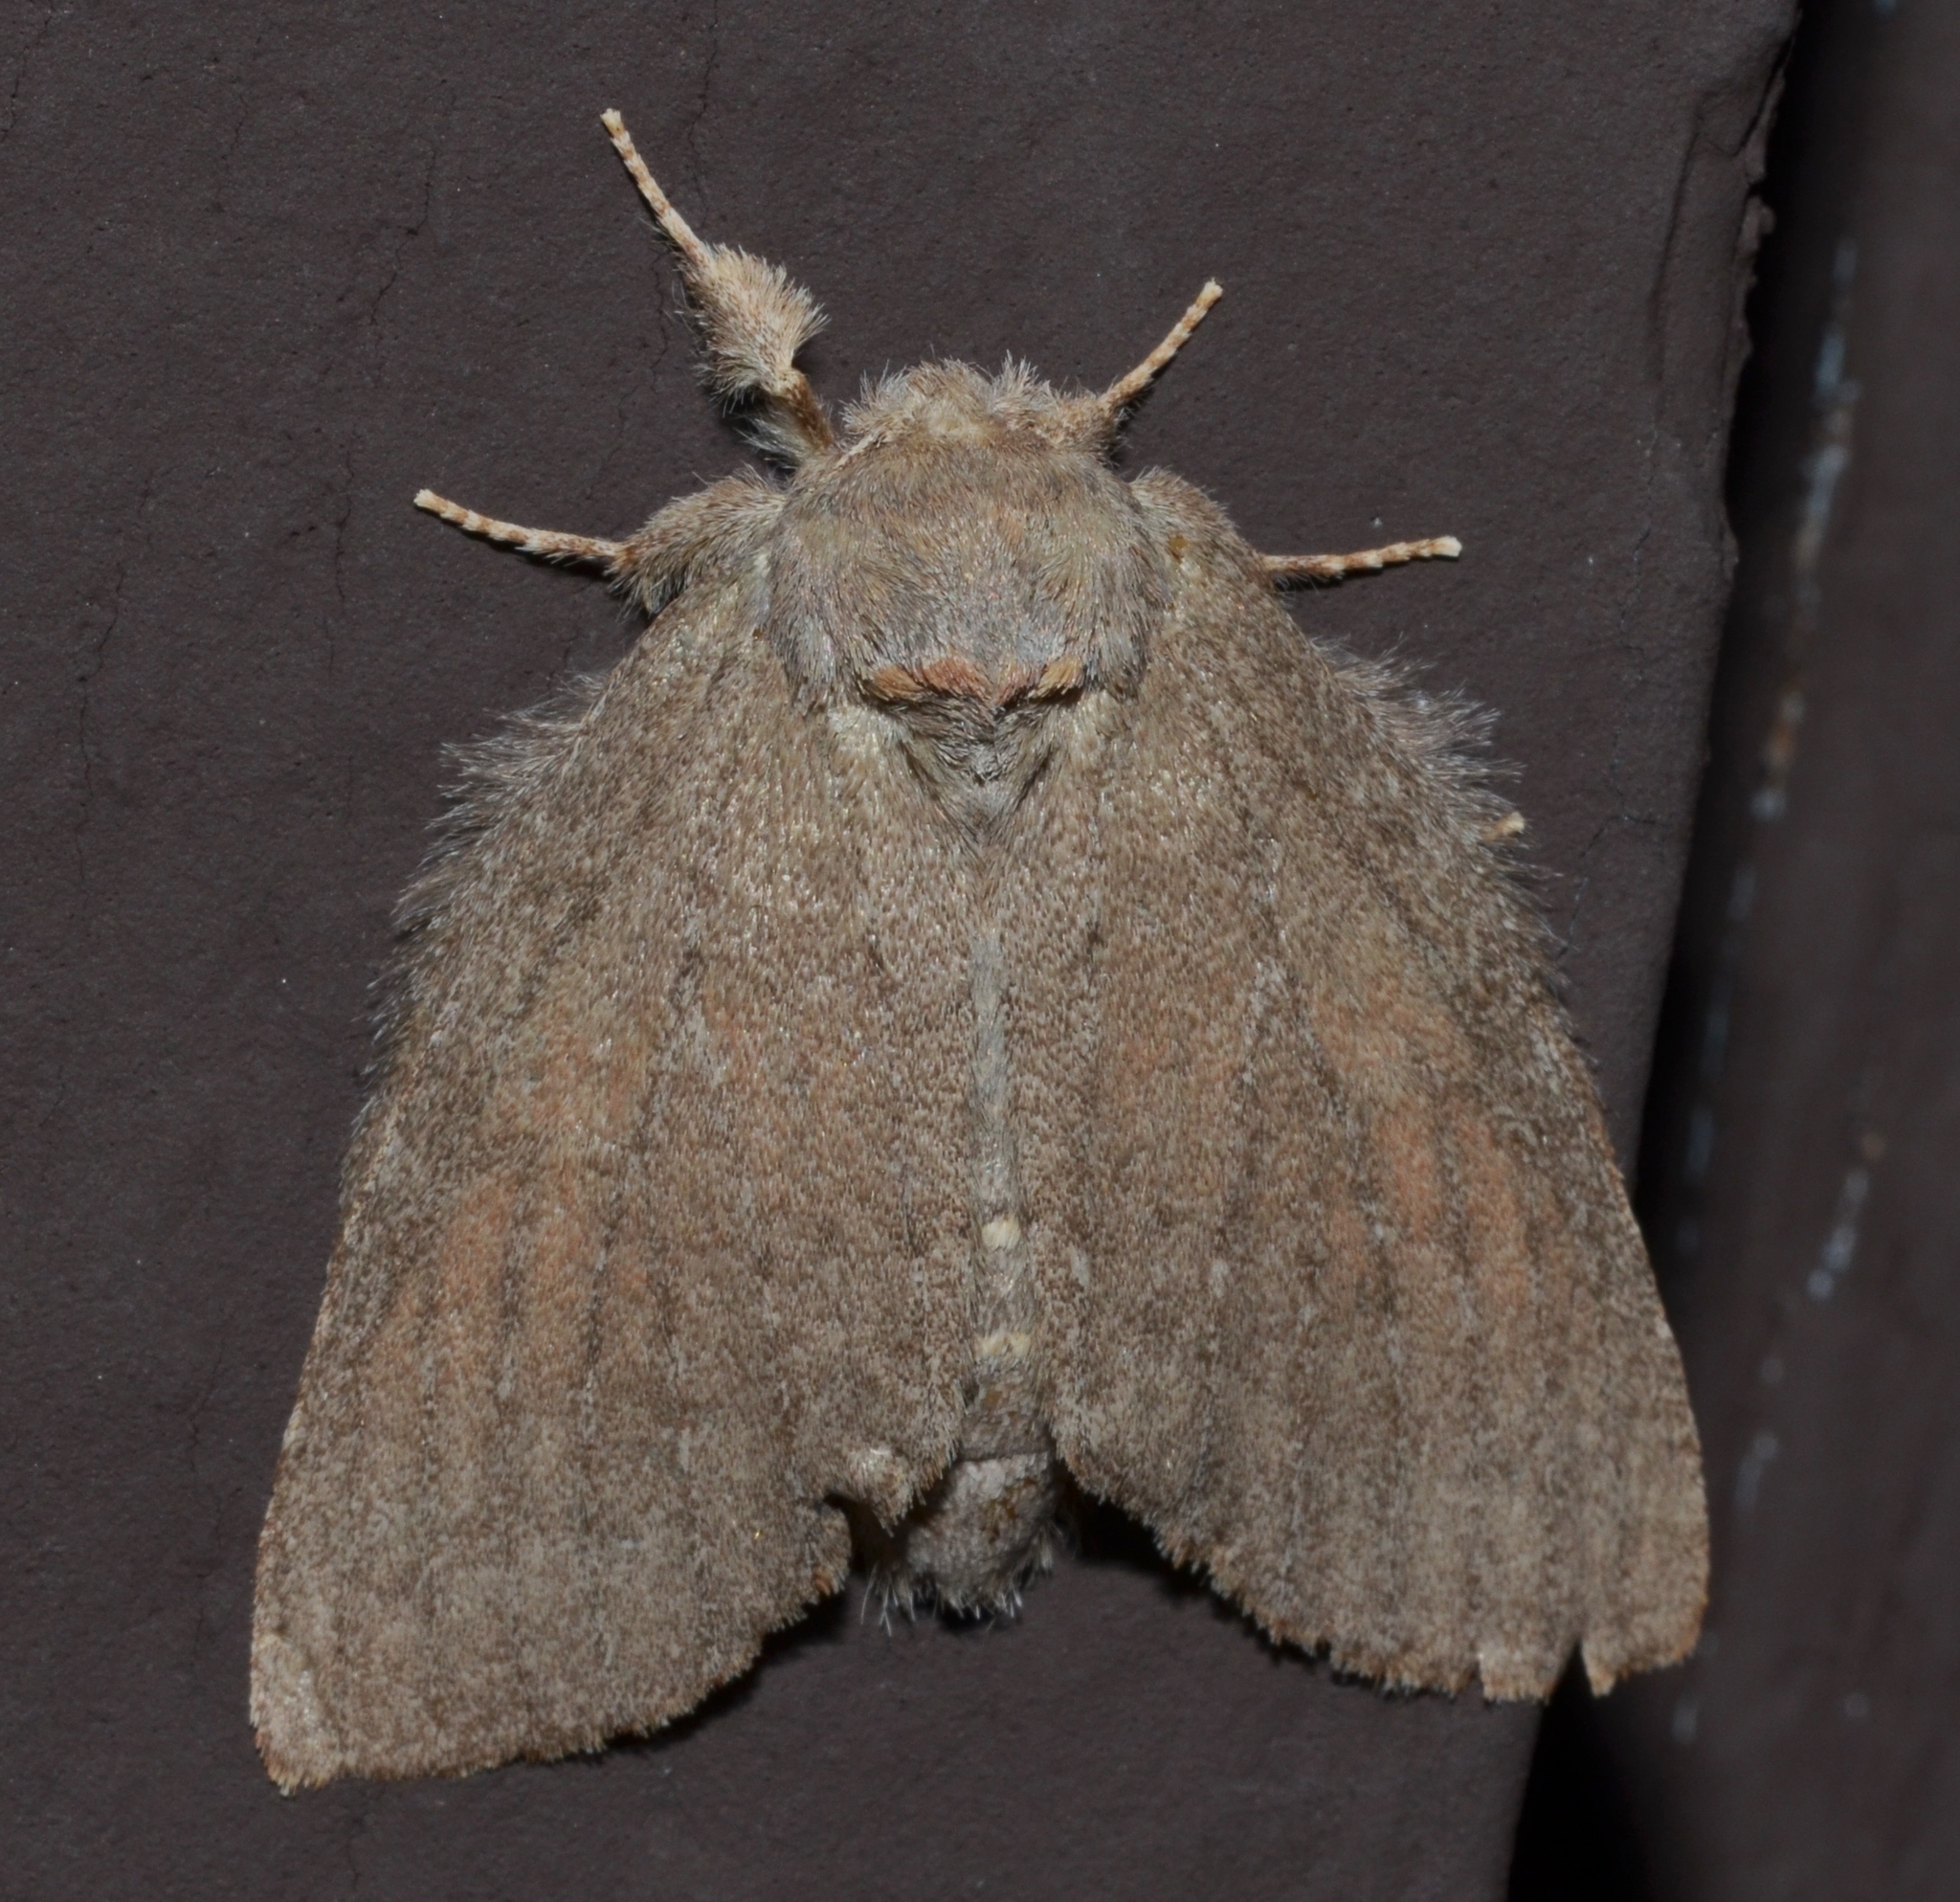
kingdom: Animalia
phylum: Arthropoda
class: Insecta
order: Lepidoptera
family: Notodontidae
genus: Misogada
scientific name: Misogada unicolor
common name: Drab prominent
